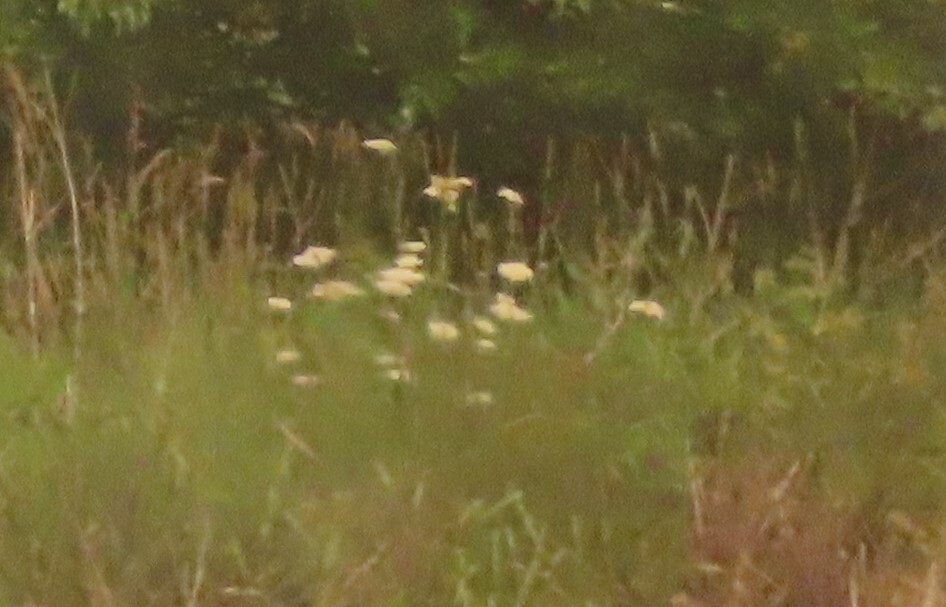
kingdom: Plantae
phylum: Tracheophyta
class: Magnoliopsida
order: Apiales
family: Apiaceae
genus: Daucus
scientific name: Daucus carota
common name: Wild carrot
